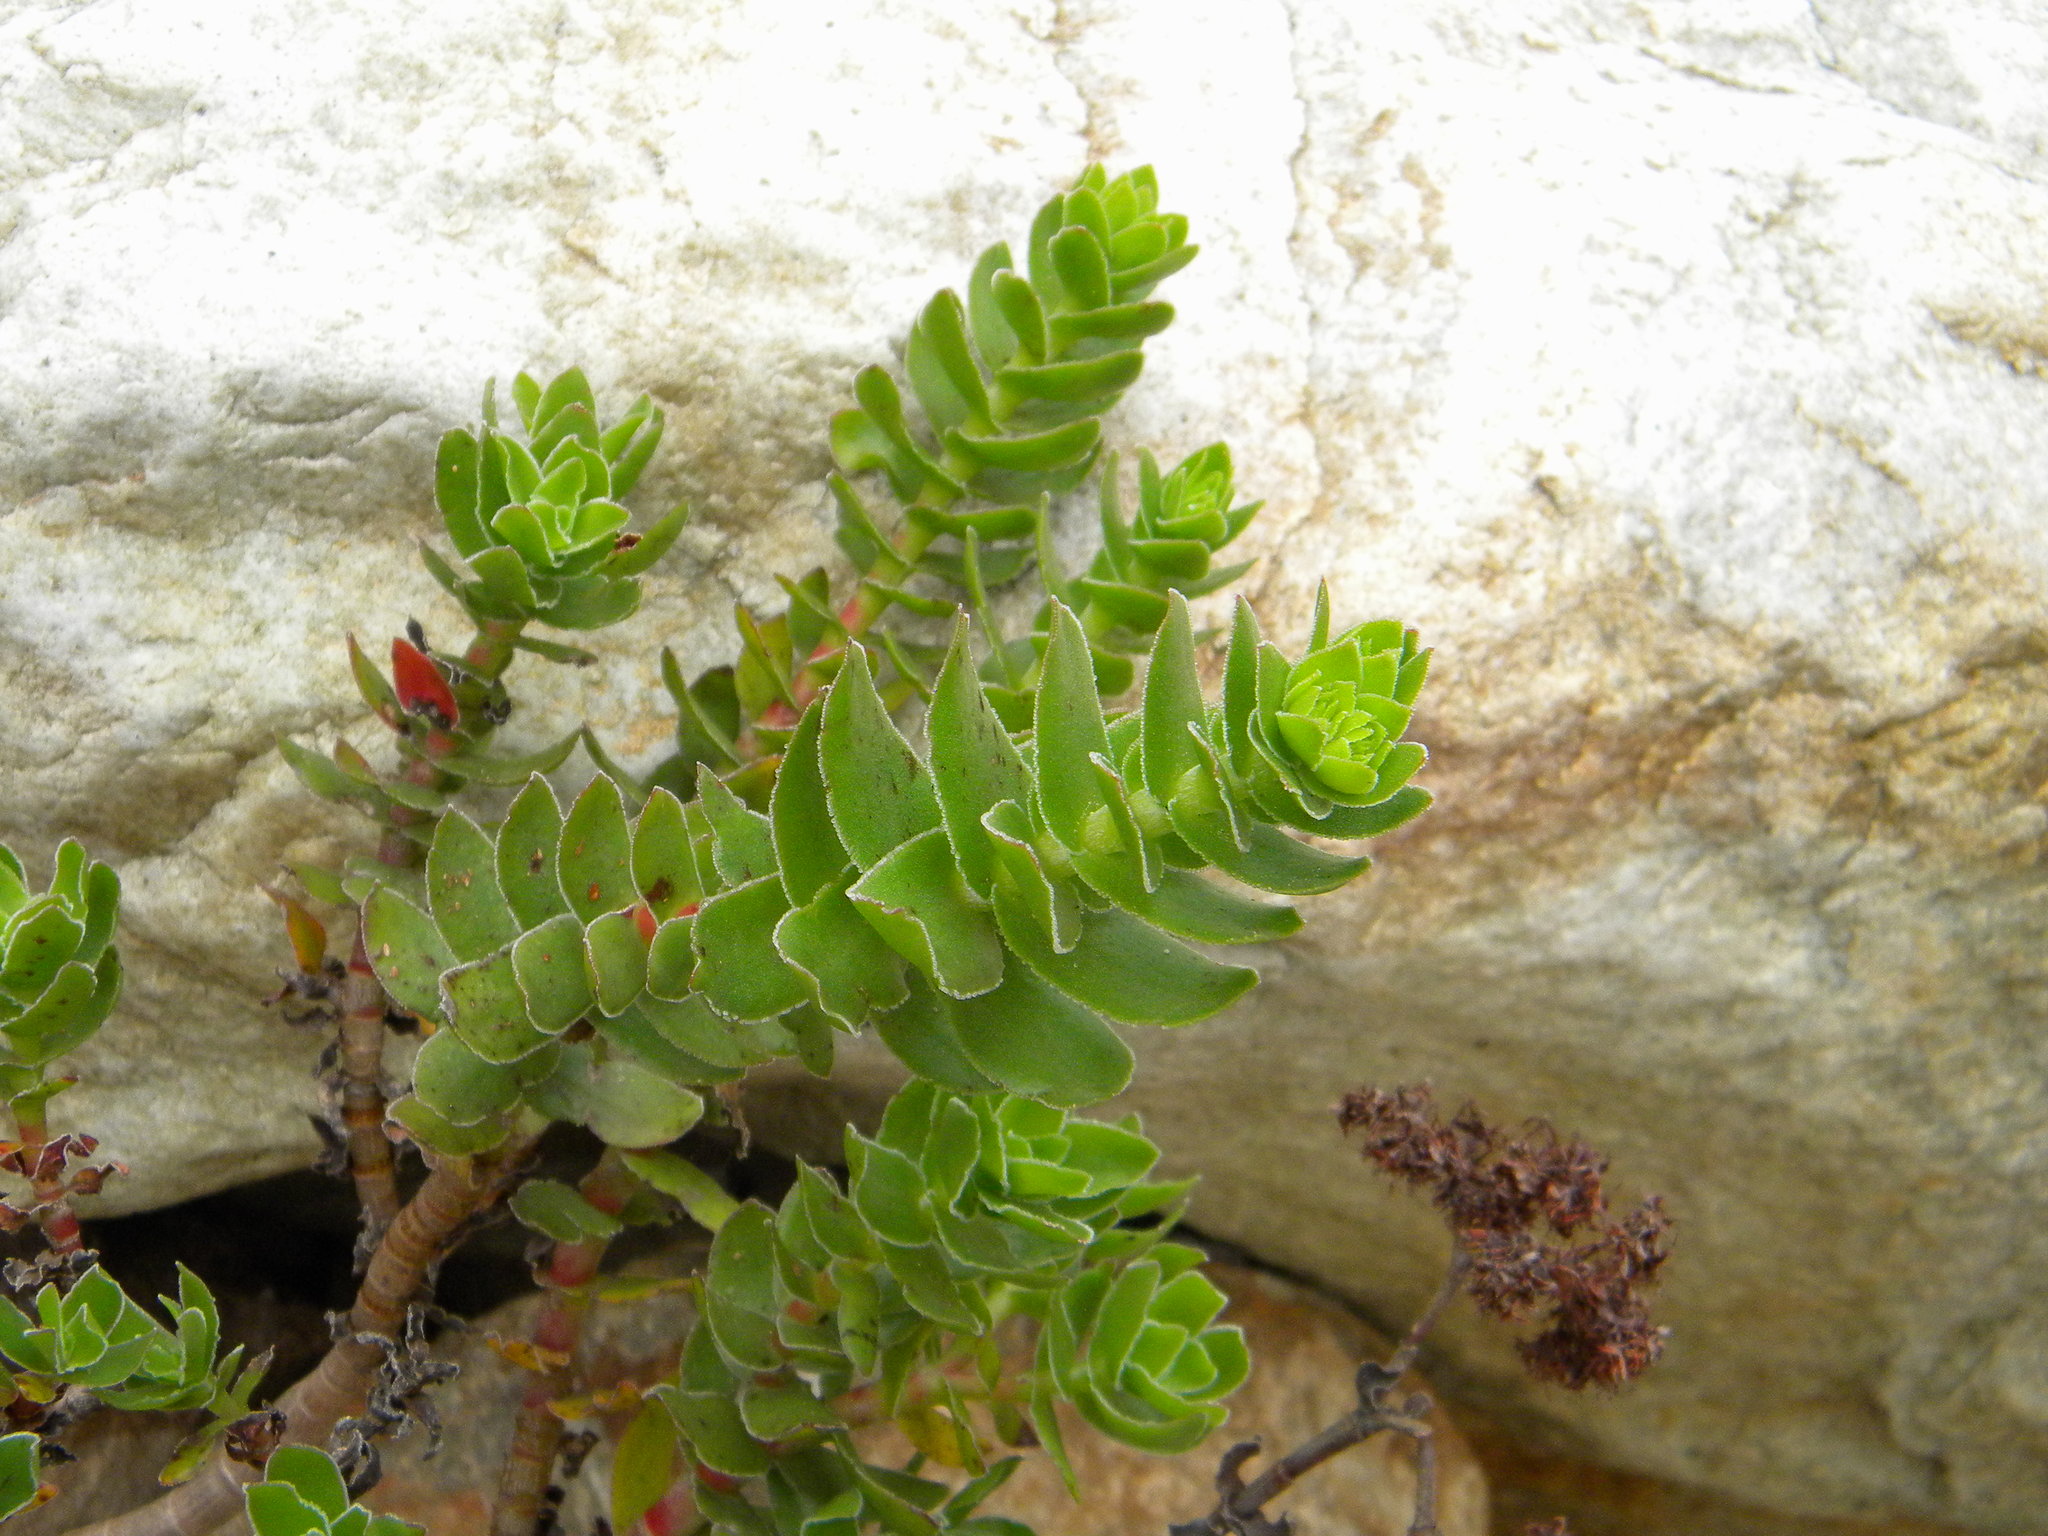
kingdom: Plantae
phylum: Tracheophyta
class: Magnoliopsida
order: Saxifragales
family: Crassulaceae
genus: Crassula
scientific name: Crassula undulata
